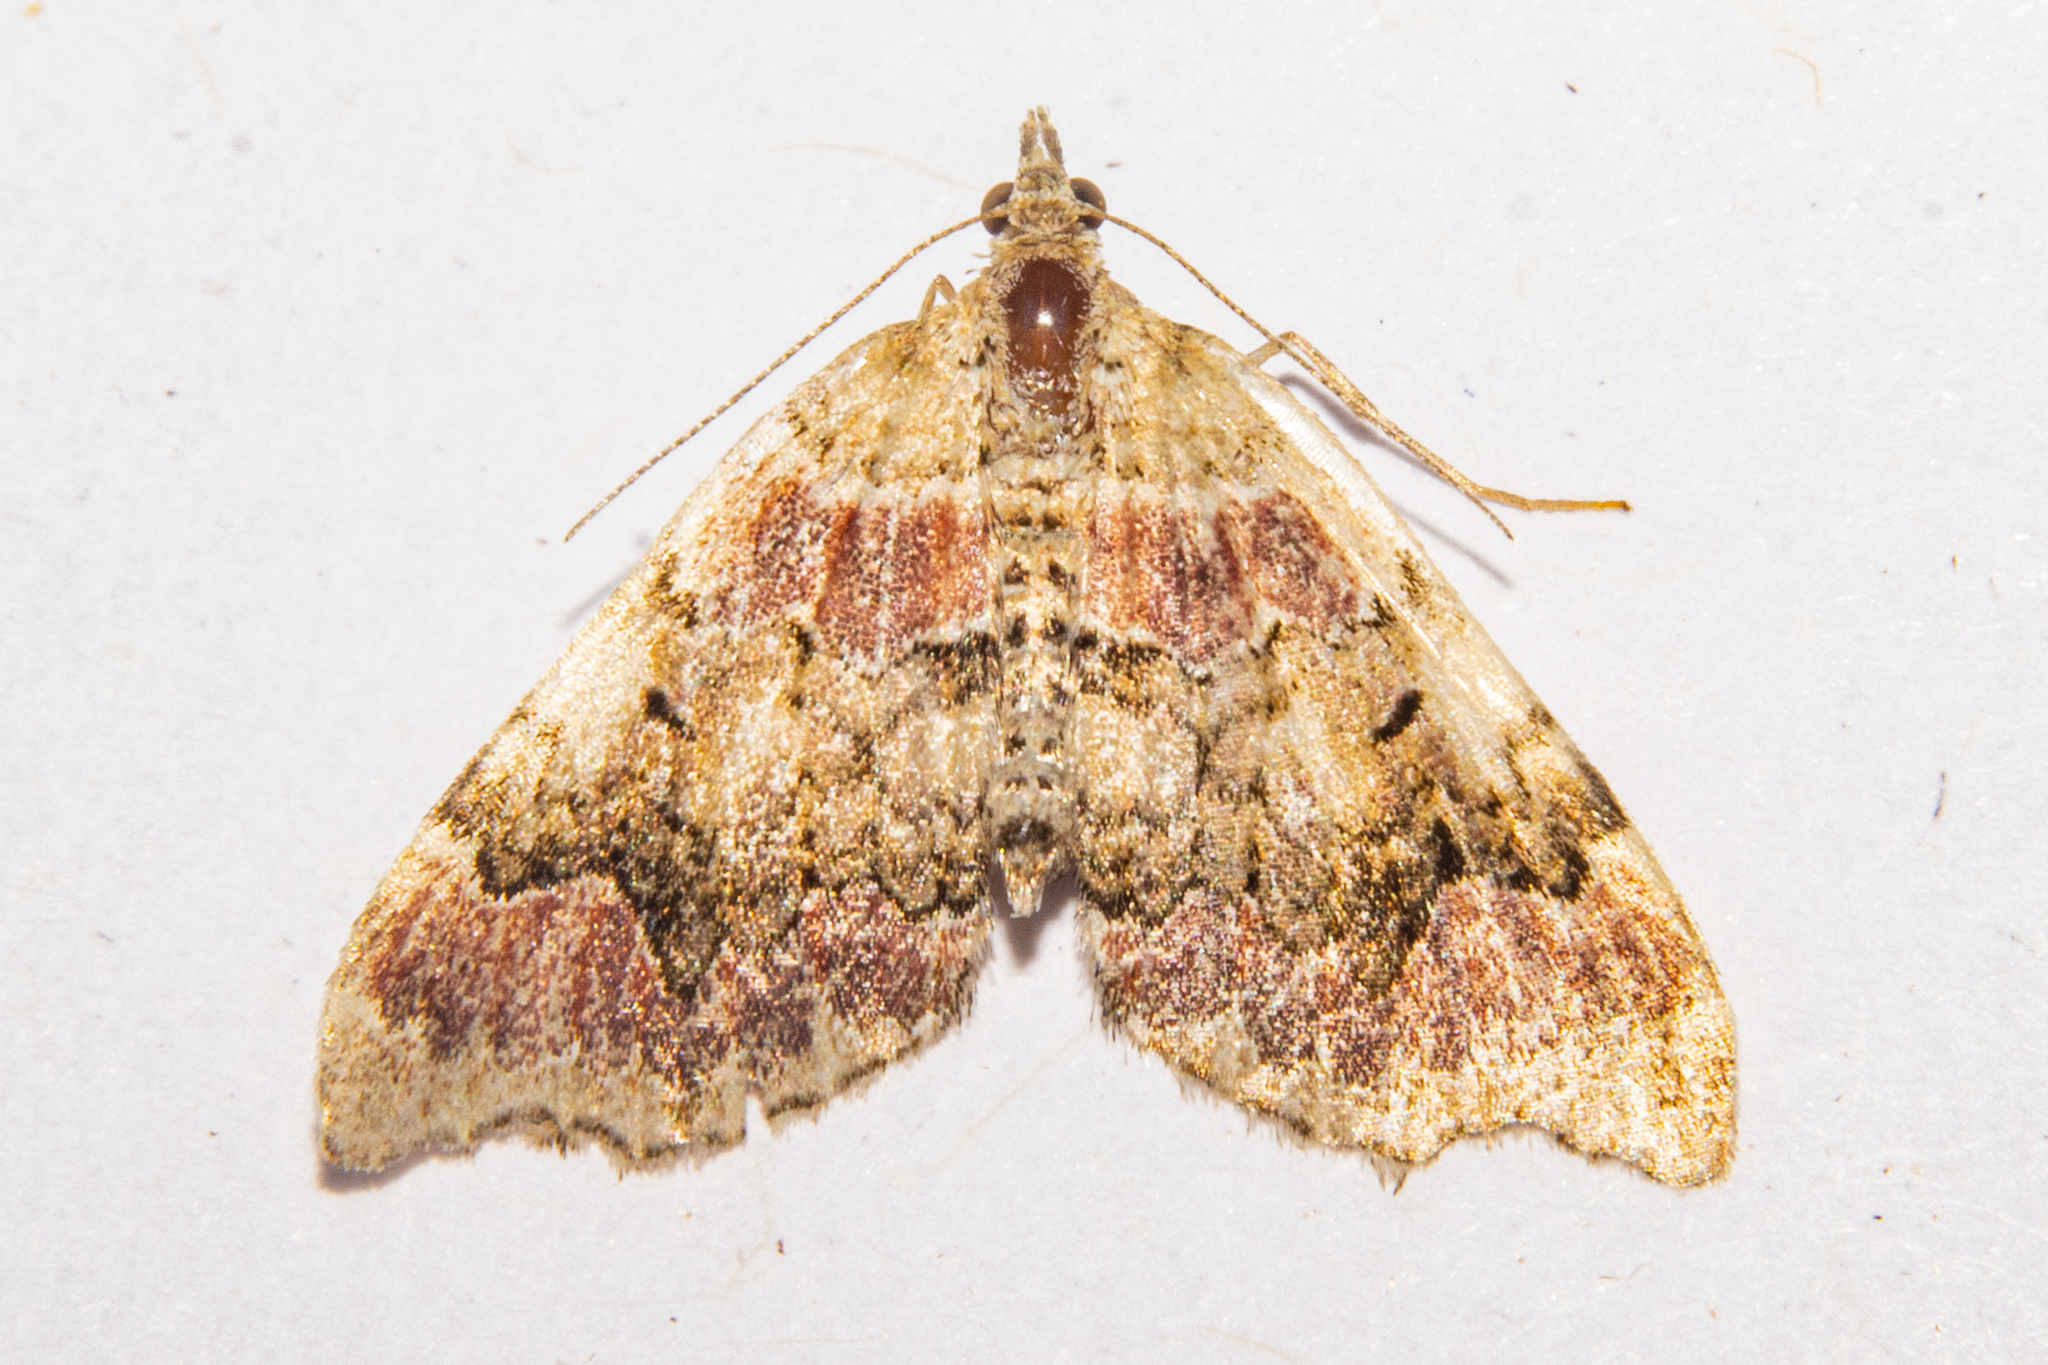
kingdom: Animalia
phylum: Arthropoda
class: Insecta
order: Lepidoptera
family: Geometridae
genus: Helastia
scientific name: Helastia cryptica
